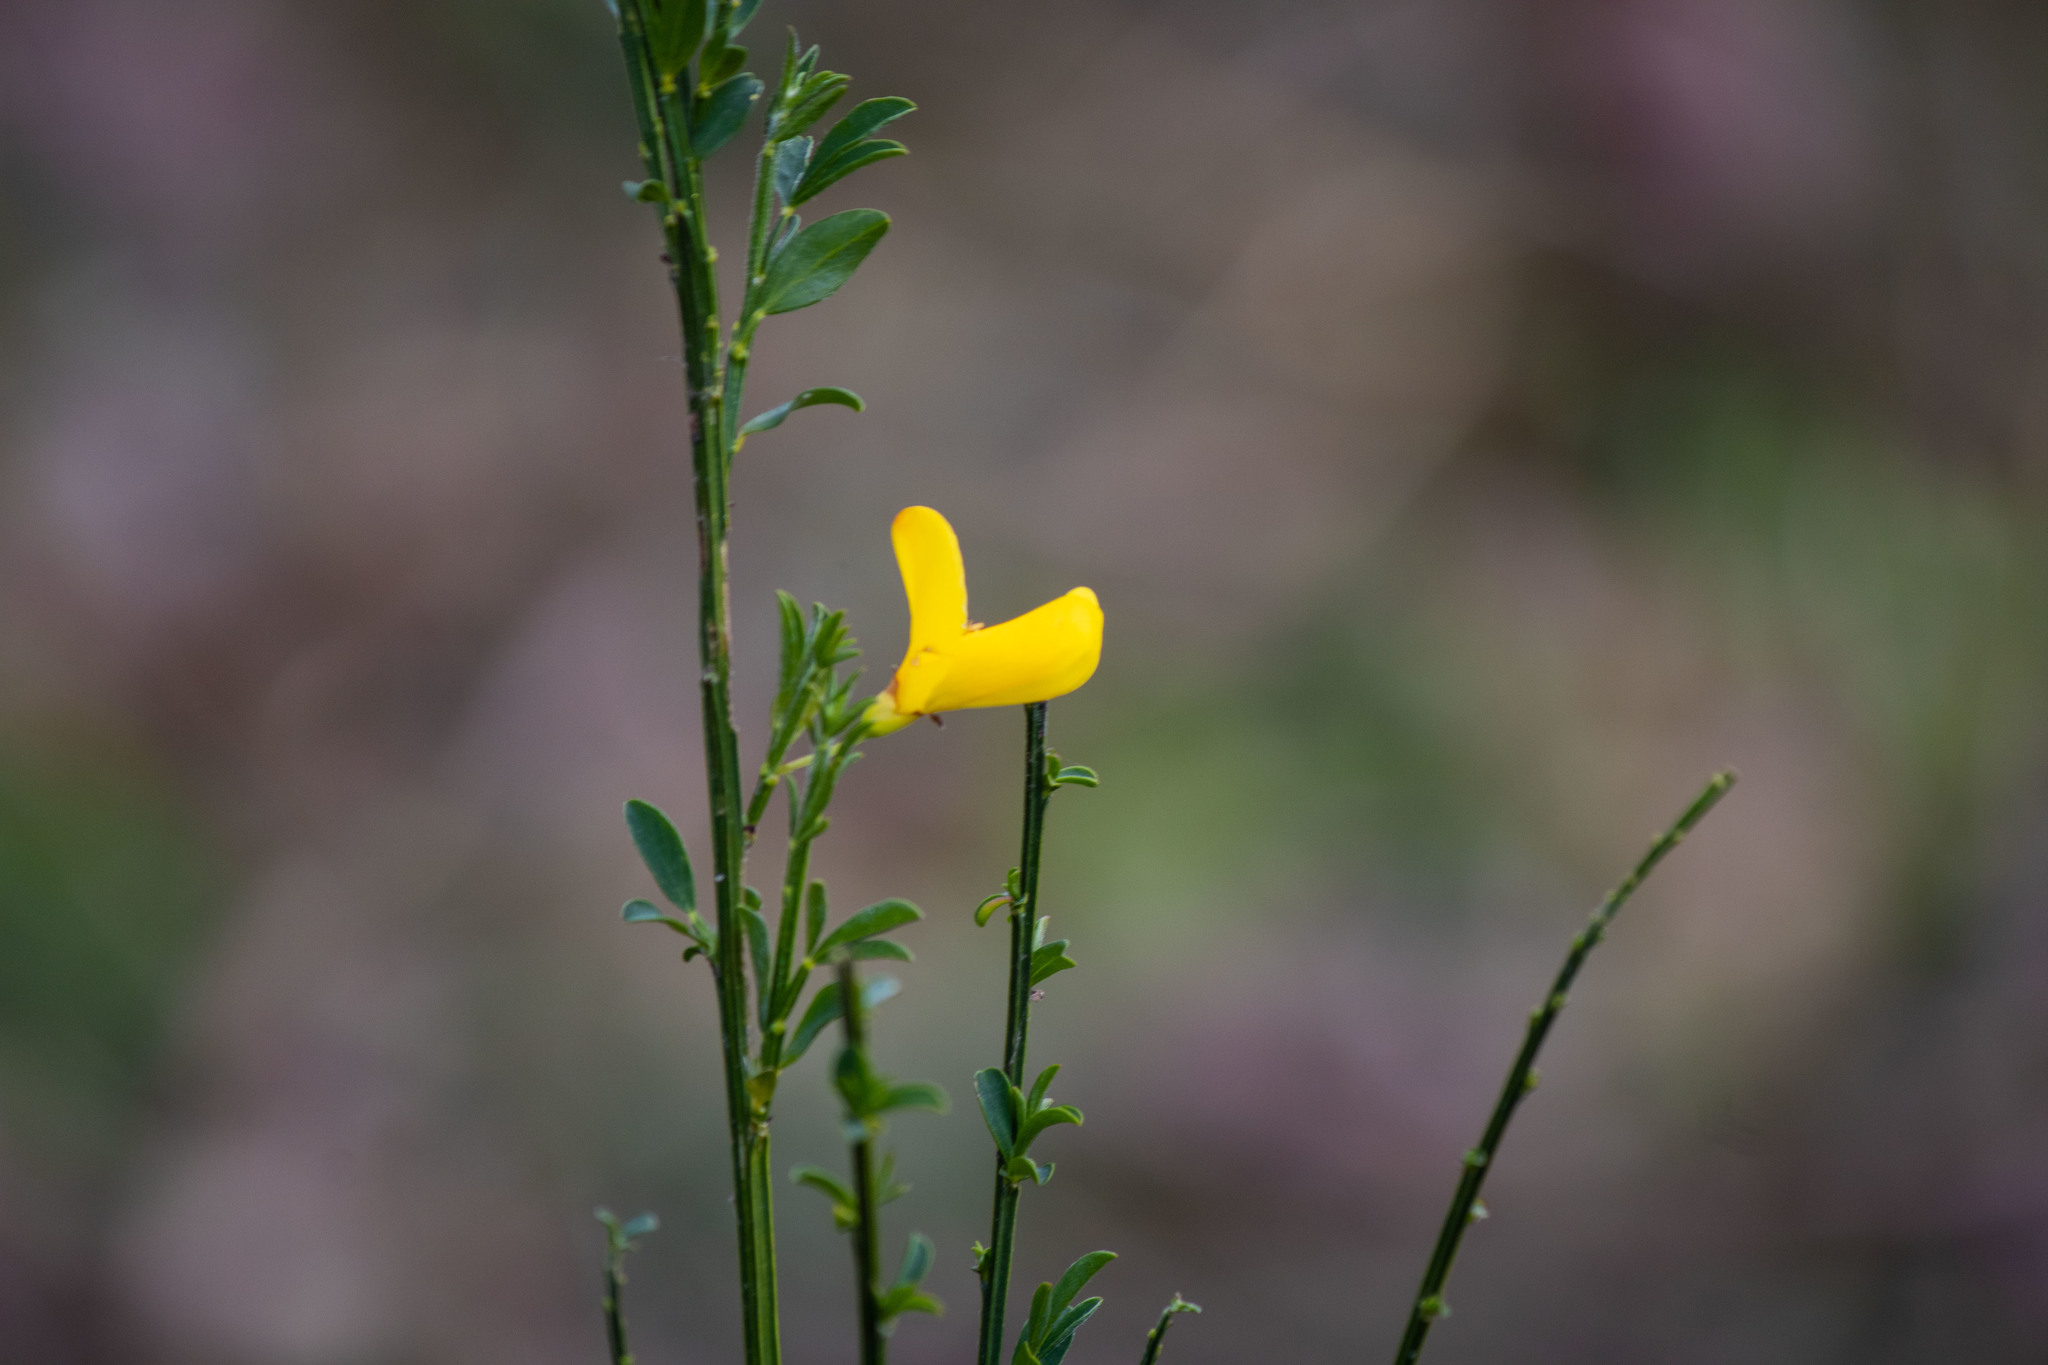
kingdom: Plantae
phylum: Tracheophyta
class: Magnoliopsida
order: Fabales
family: Fabaceae
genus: Cytisus
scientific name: Cytisus scoparius
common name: Scotch broom
